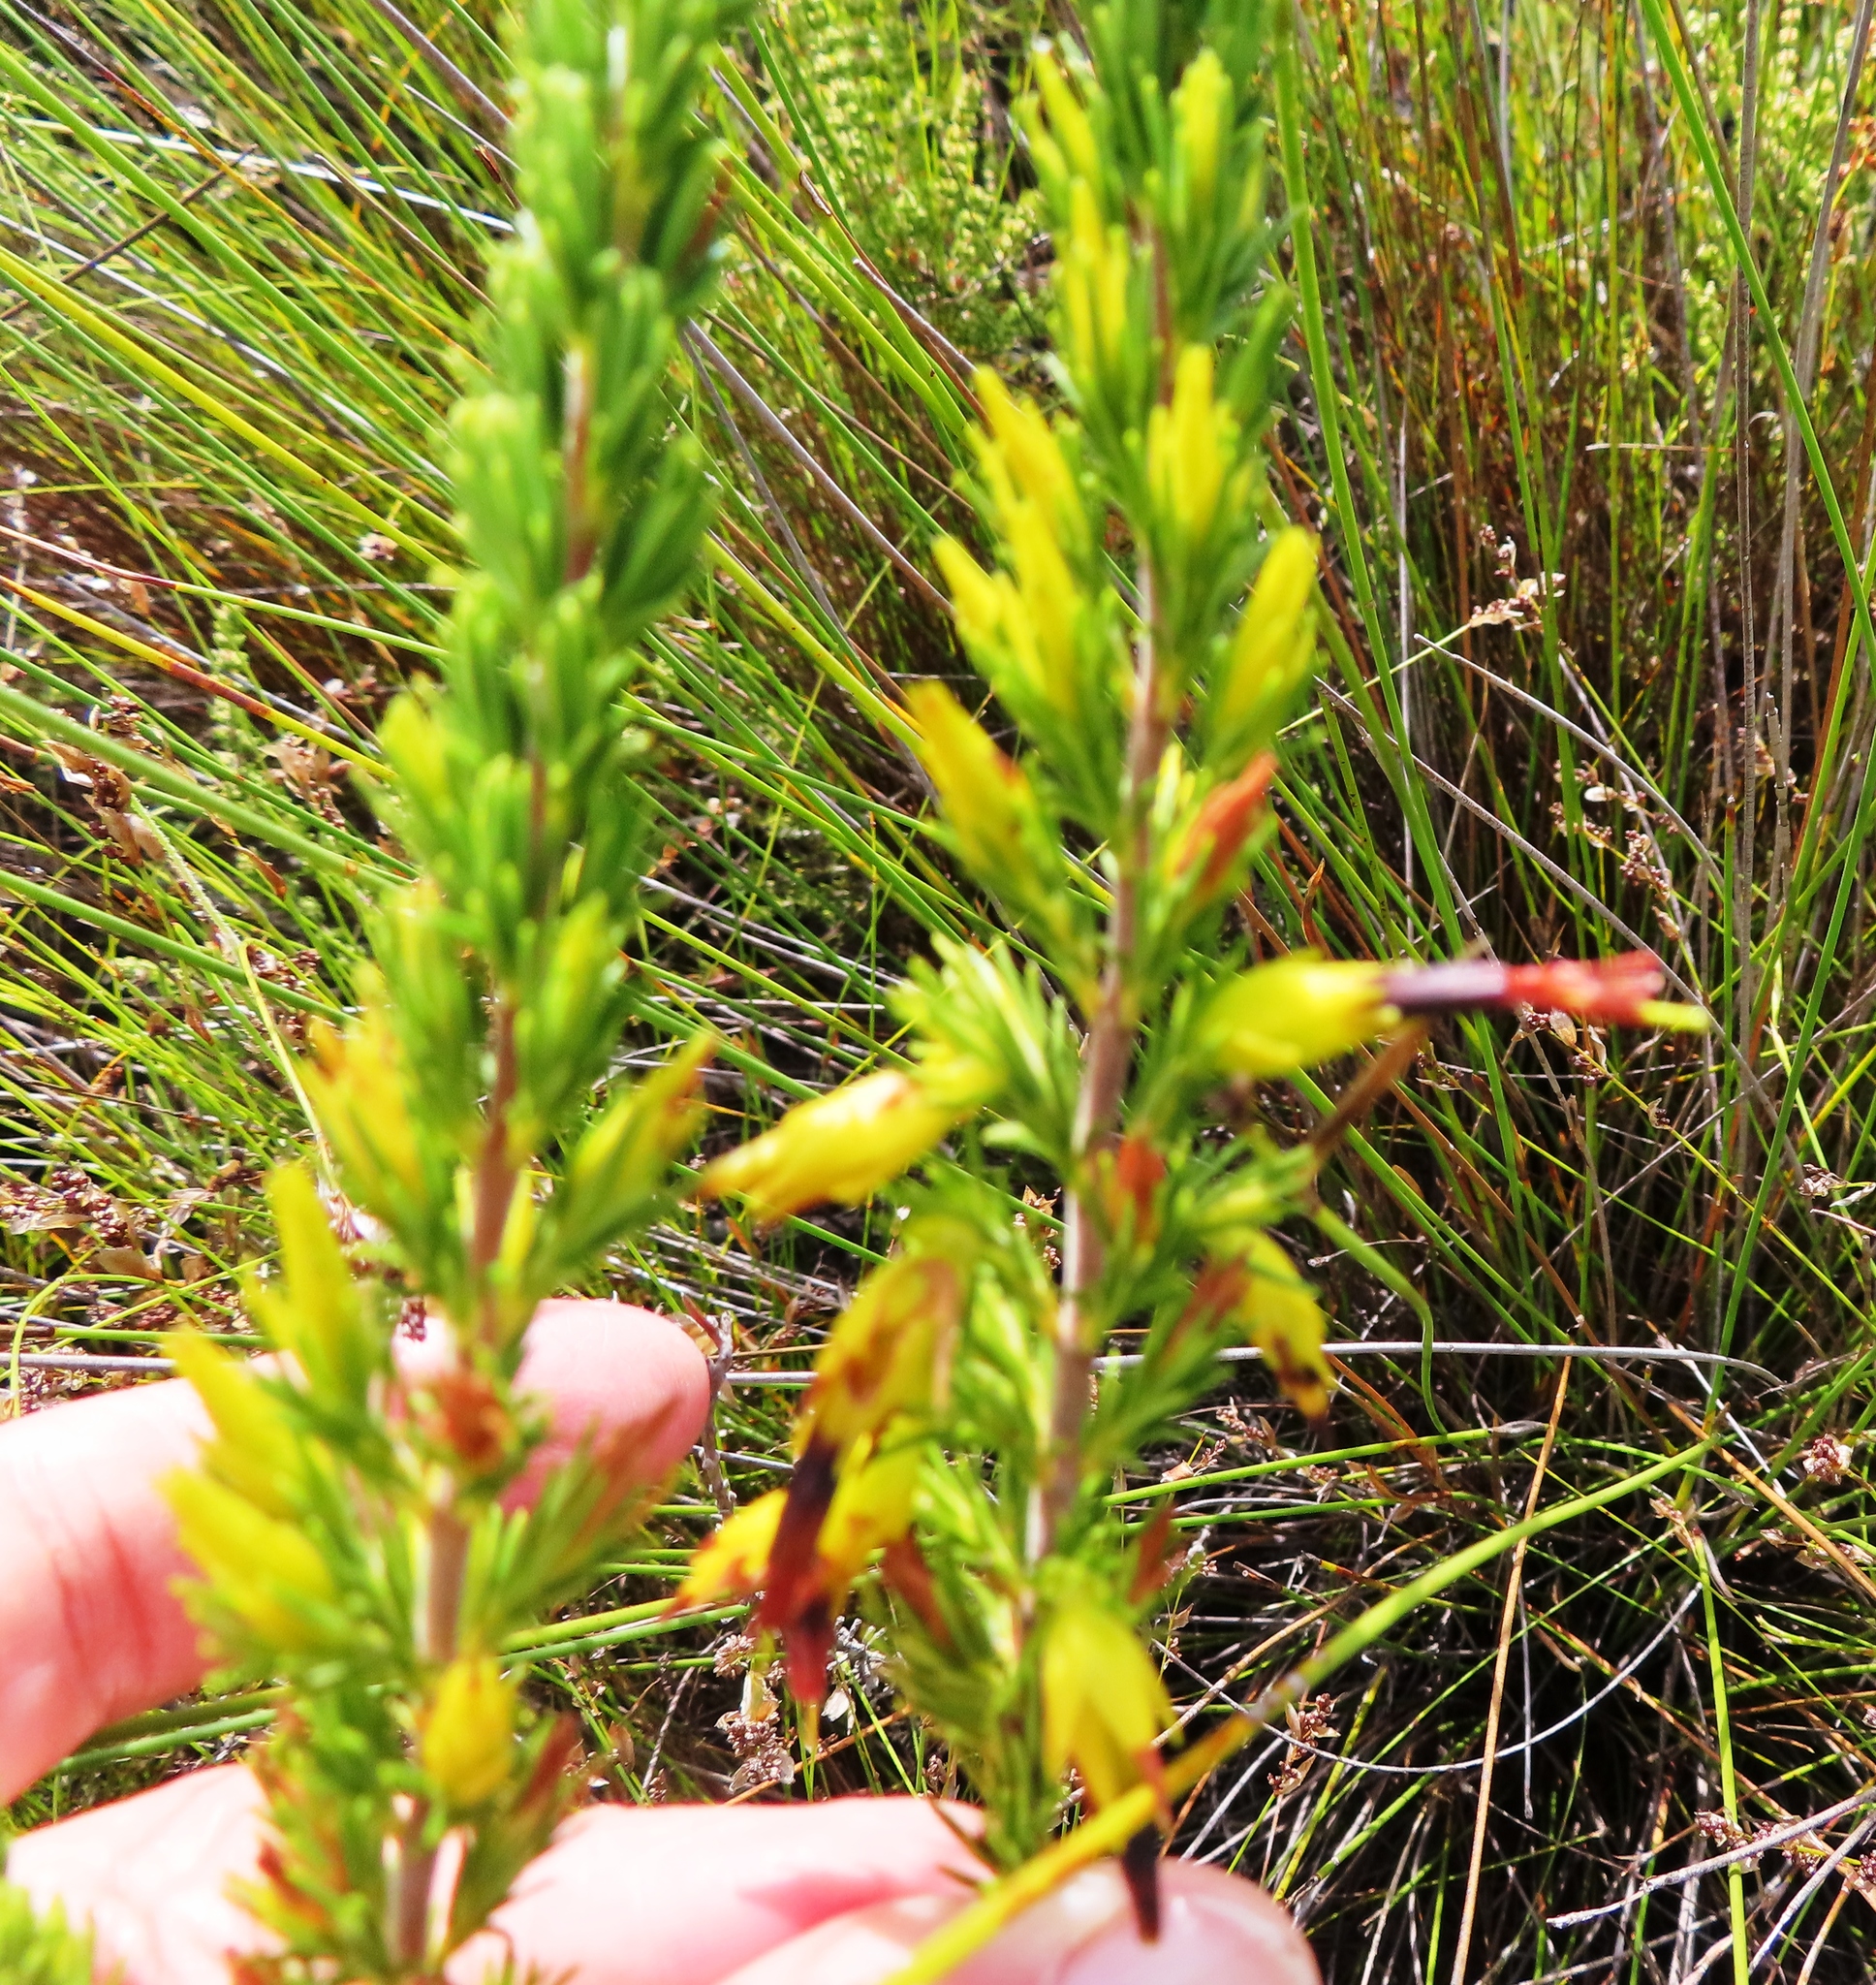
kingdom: Plantae
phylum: Tracheophyta
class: Magnoliopsida
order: Ericales
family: Ericaceae
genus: Erica
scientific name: Erica melastoma
